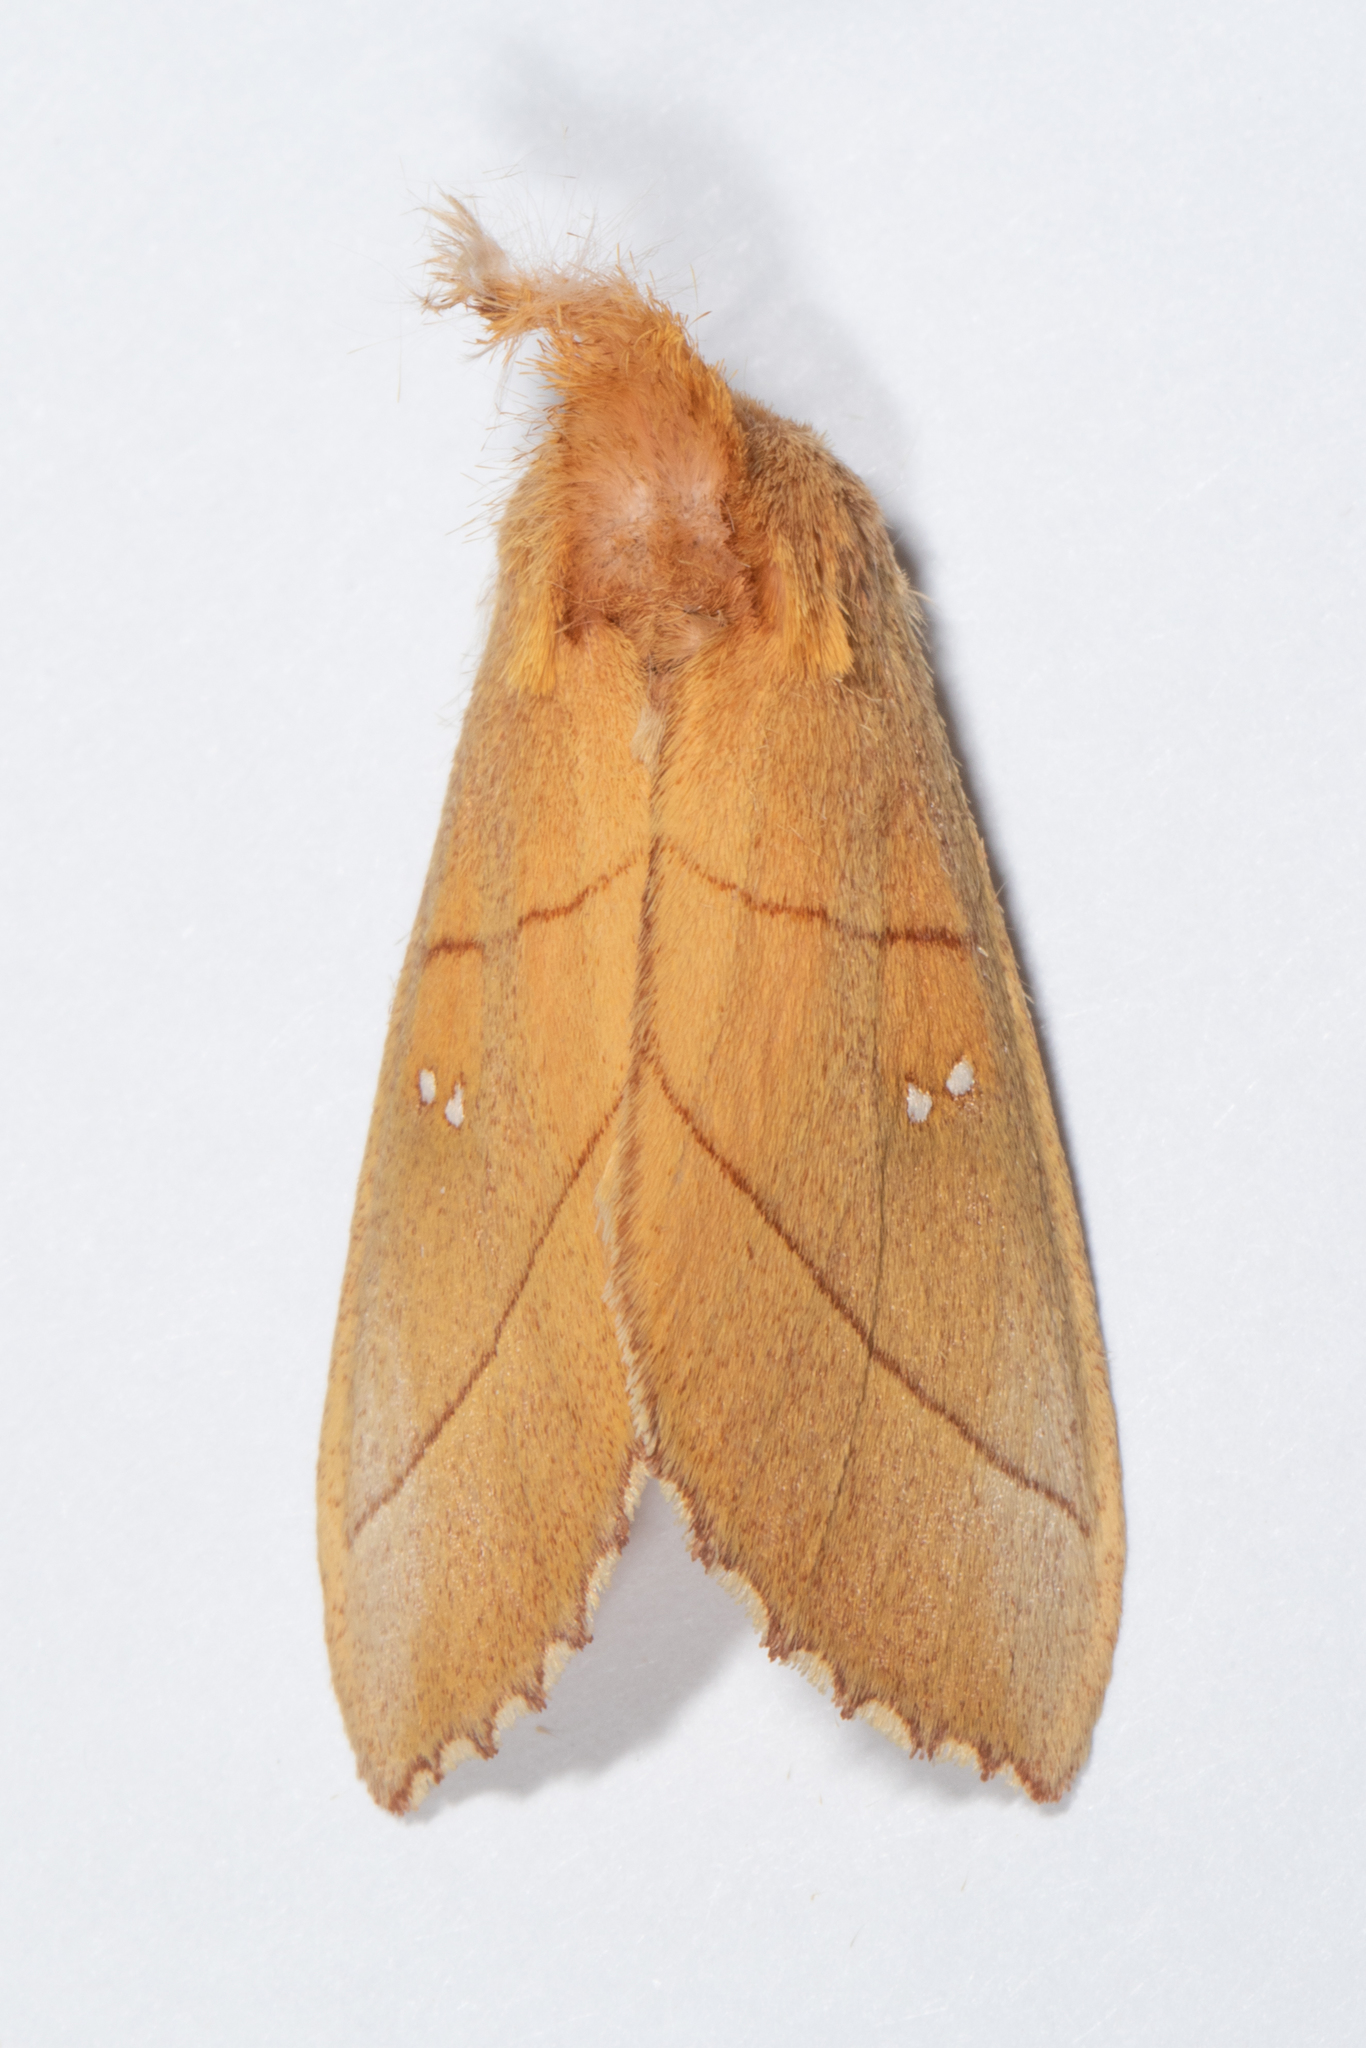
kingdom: Animalia
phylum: Arthropoda
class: Insecta
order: Lepidoptera
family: Notodontidae
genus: Nadata
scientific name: Nadata gibbosa
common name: White-dotted prominent
